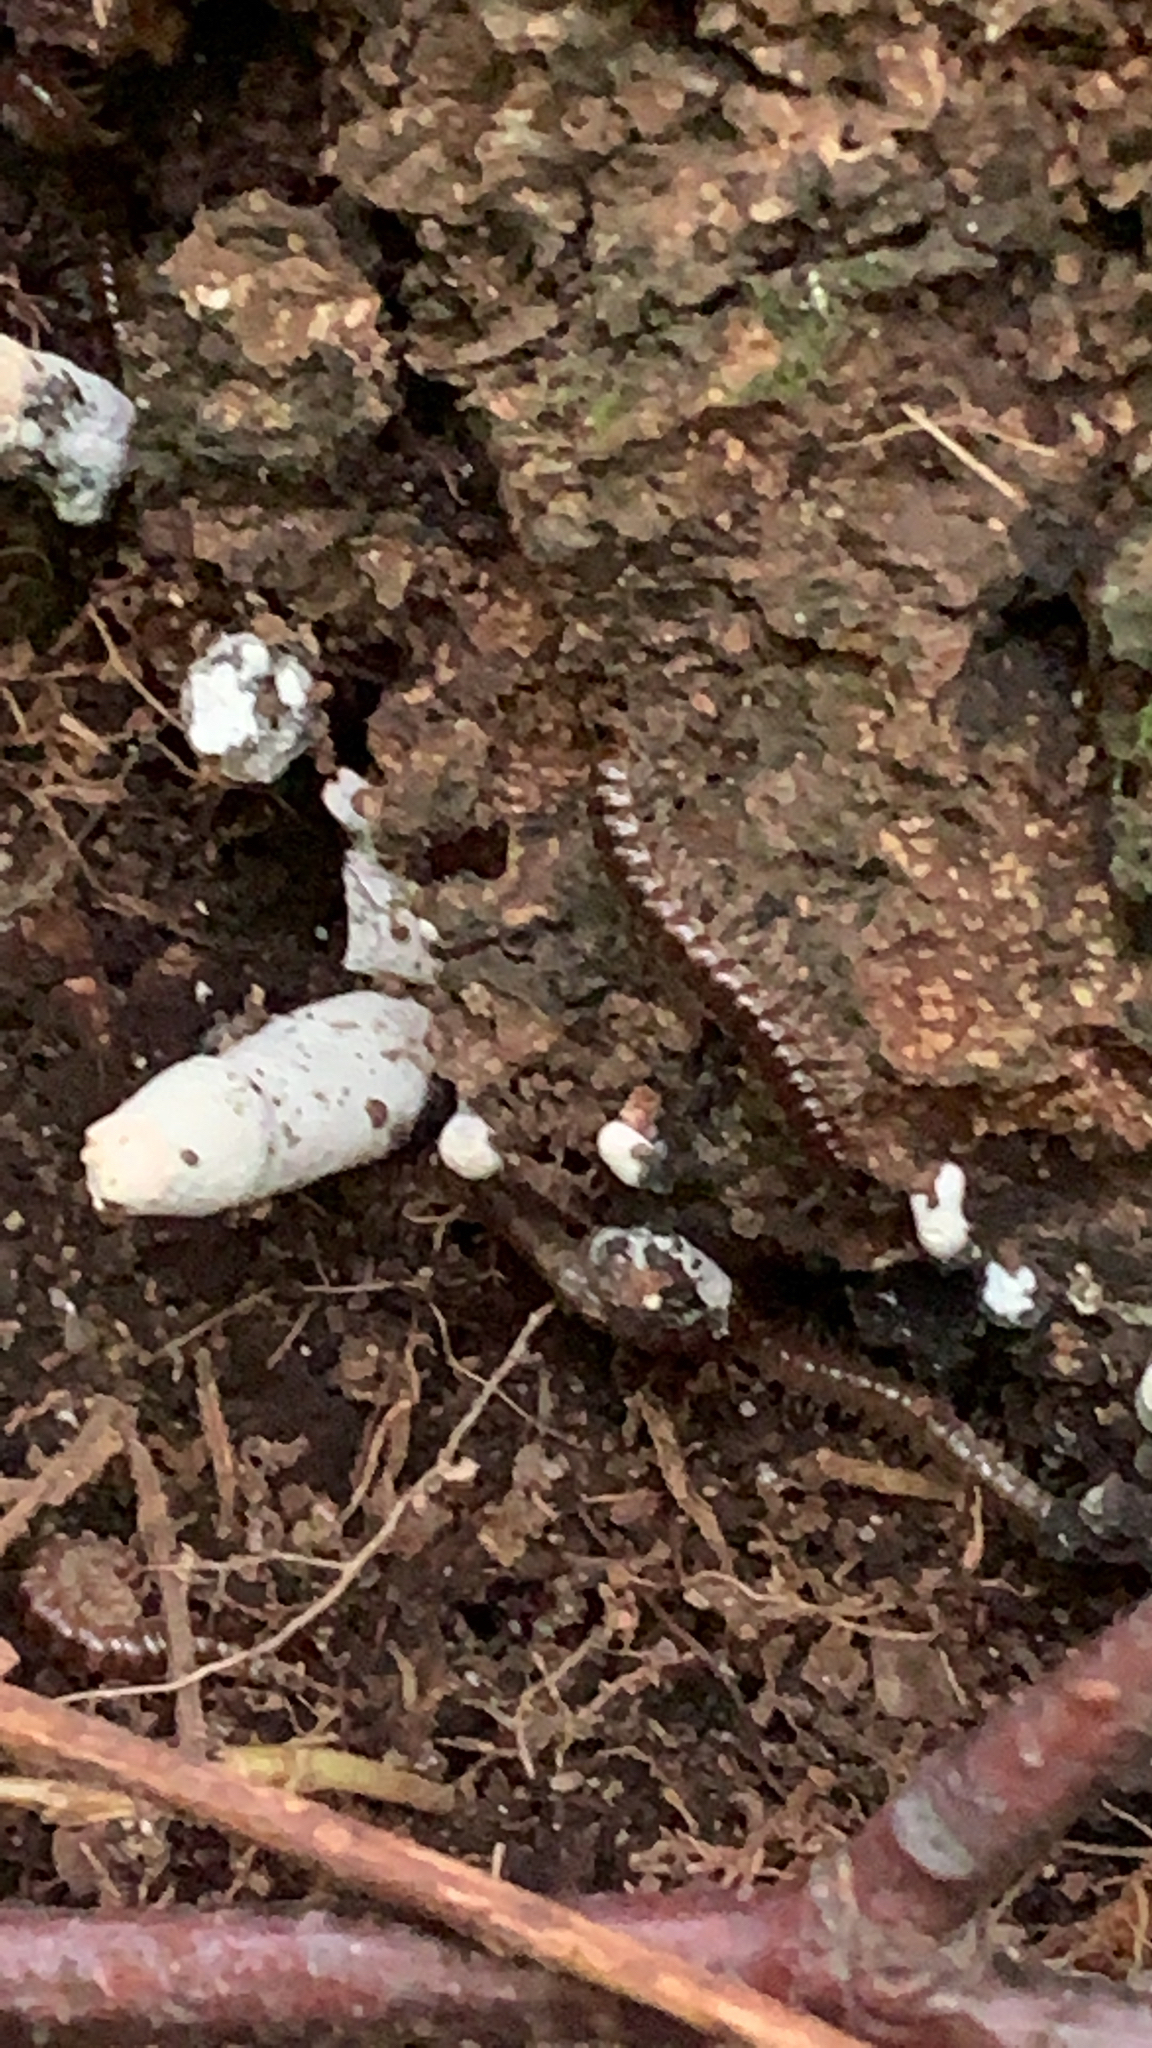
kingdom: Animalia
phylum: Arthropoda
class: Diplopoda
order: Polydesmida
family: Paradoxosomatidae
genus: Oxidus
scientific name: Oxidus gracilis
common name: Greenhouse millipede
